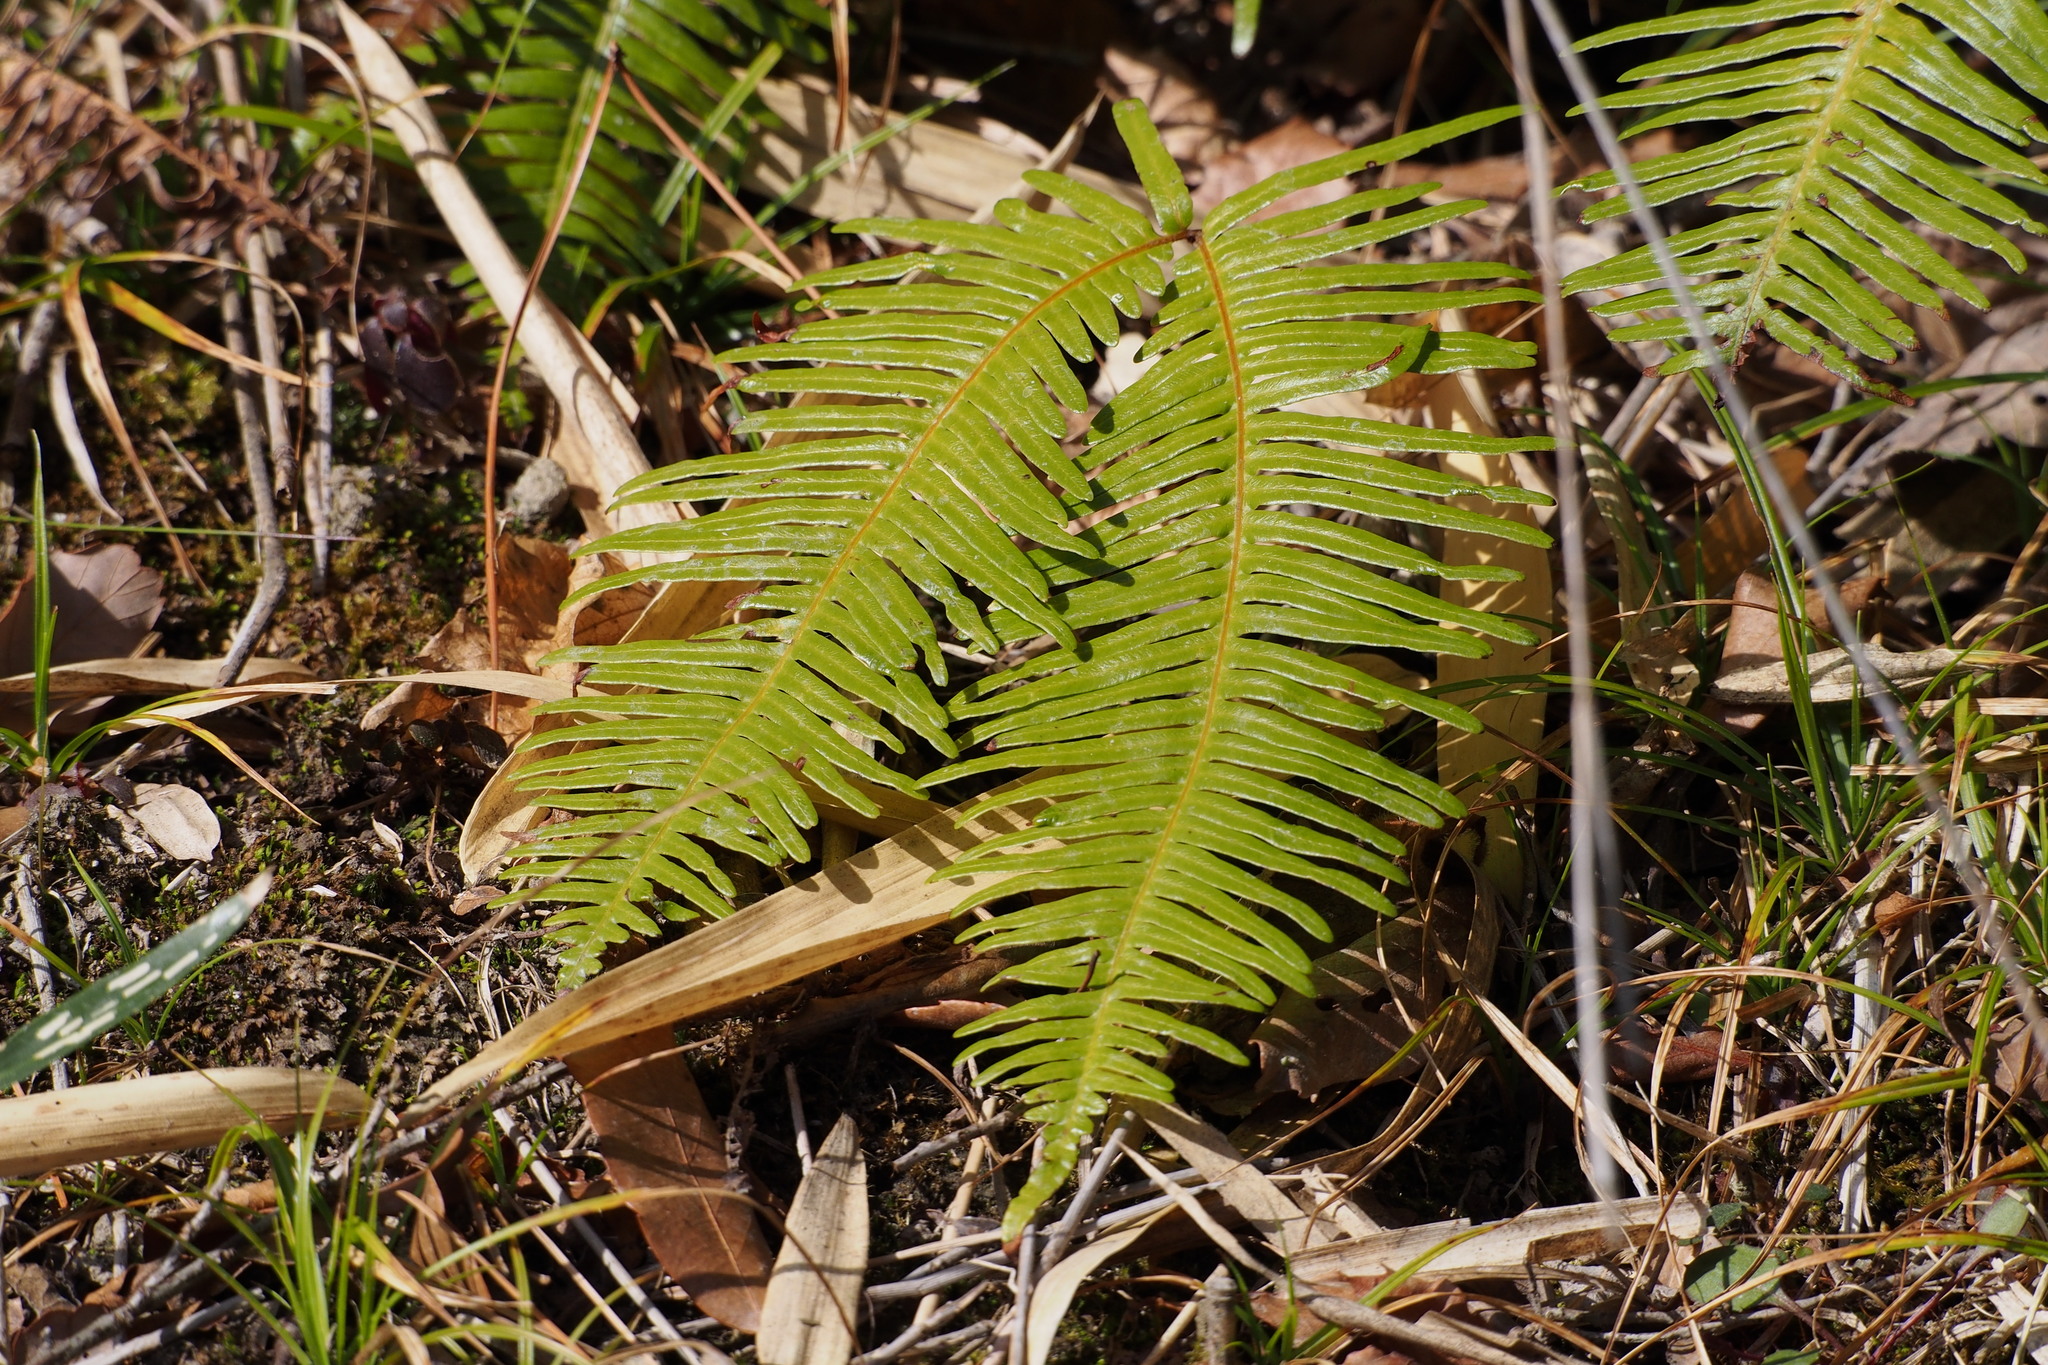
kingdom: Plantae
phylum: Tracheophyta
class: Polypodiopsida
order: Gleicheniales
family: Gleicheniaceae
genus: Dicranopteris
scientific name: Dicranopteris linearis
